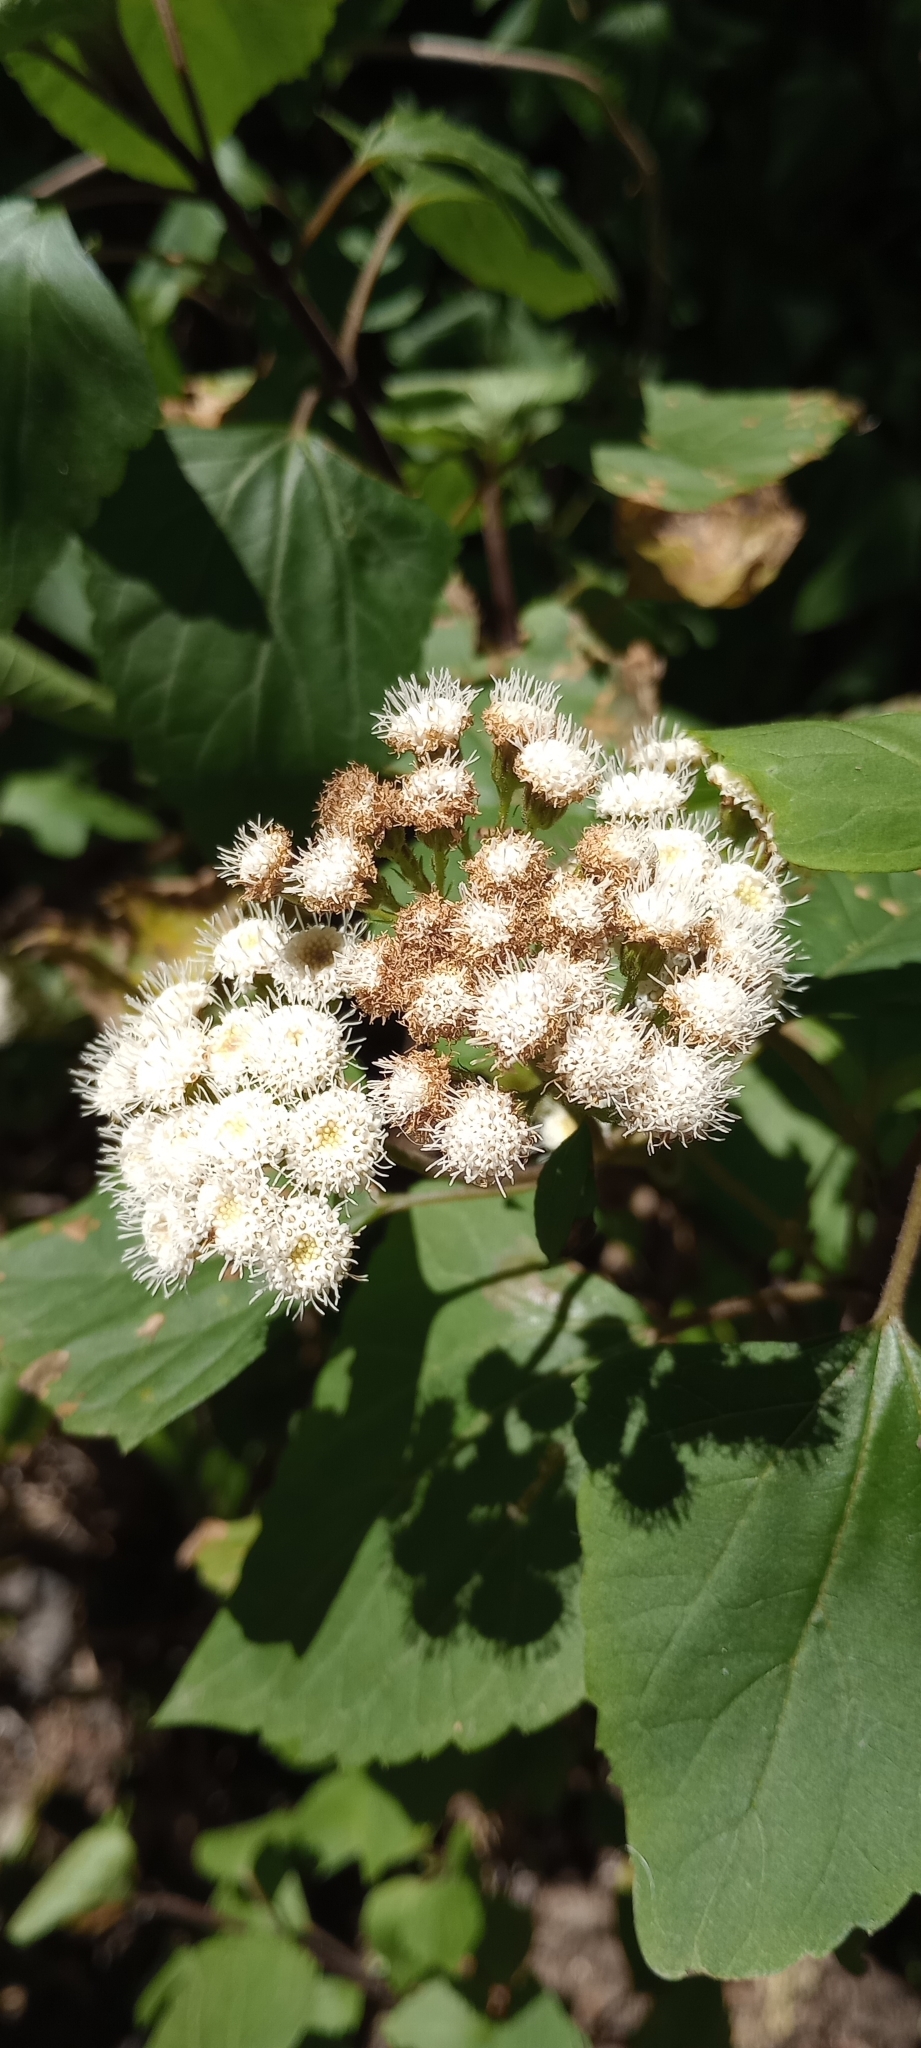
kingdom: Plantae
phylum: Tracheophyta
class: Magnoliopsida
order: Asterales
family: Asteraceae
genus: Ageratina
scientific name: Ageratina adenophora
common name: Sticky snakeroot
